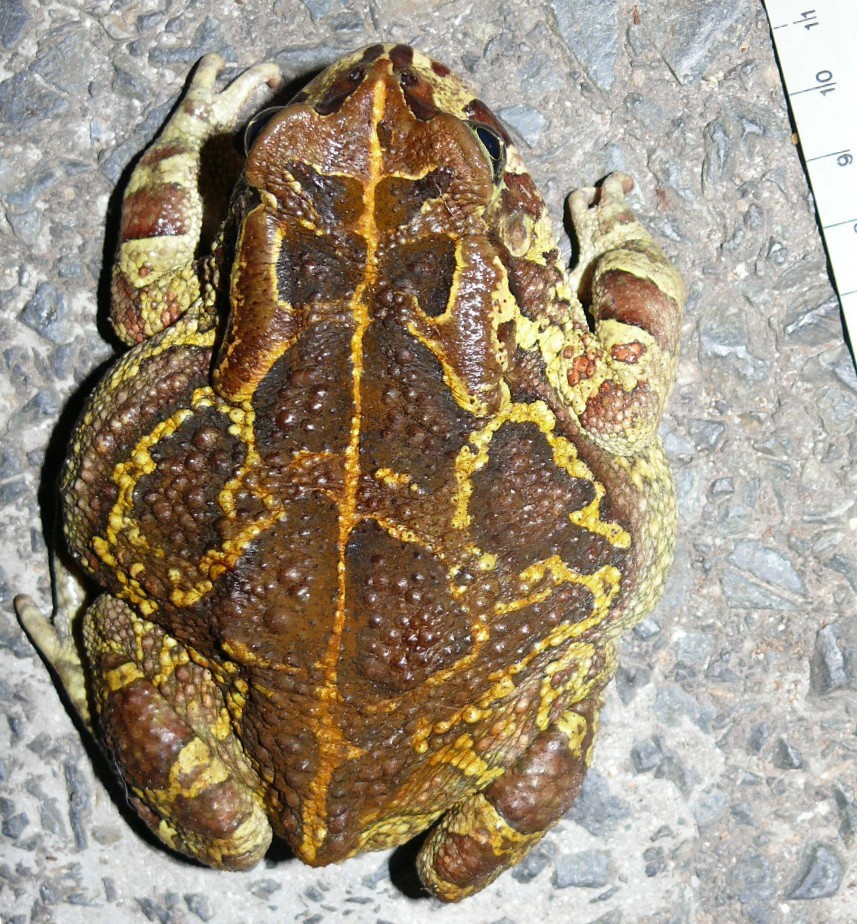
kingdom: Animalia
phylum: Chordata
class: Amphibia
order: Anura
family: Bufonidae
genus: Sclerophrys
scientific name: Sclerophrys pantherina
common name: Panther toad
